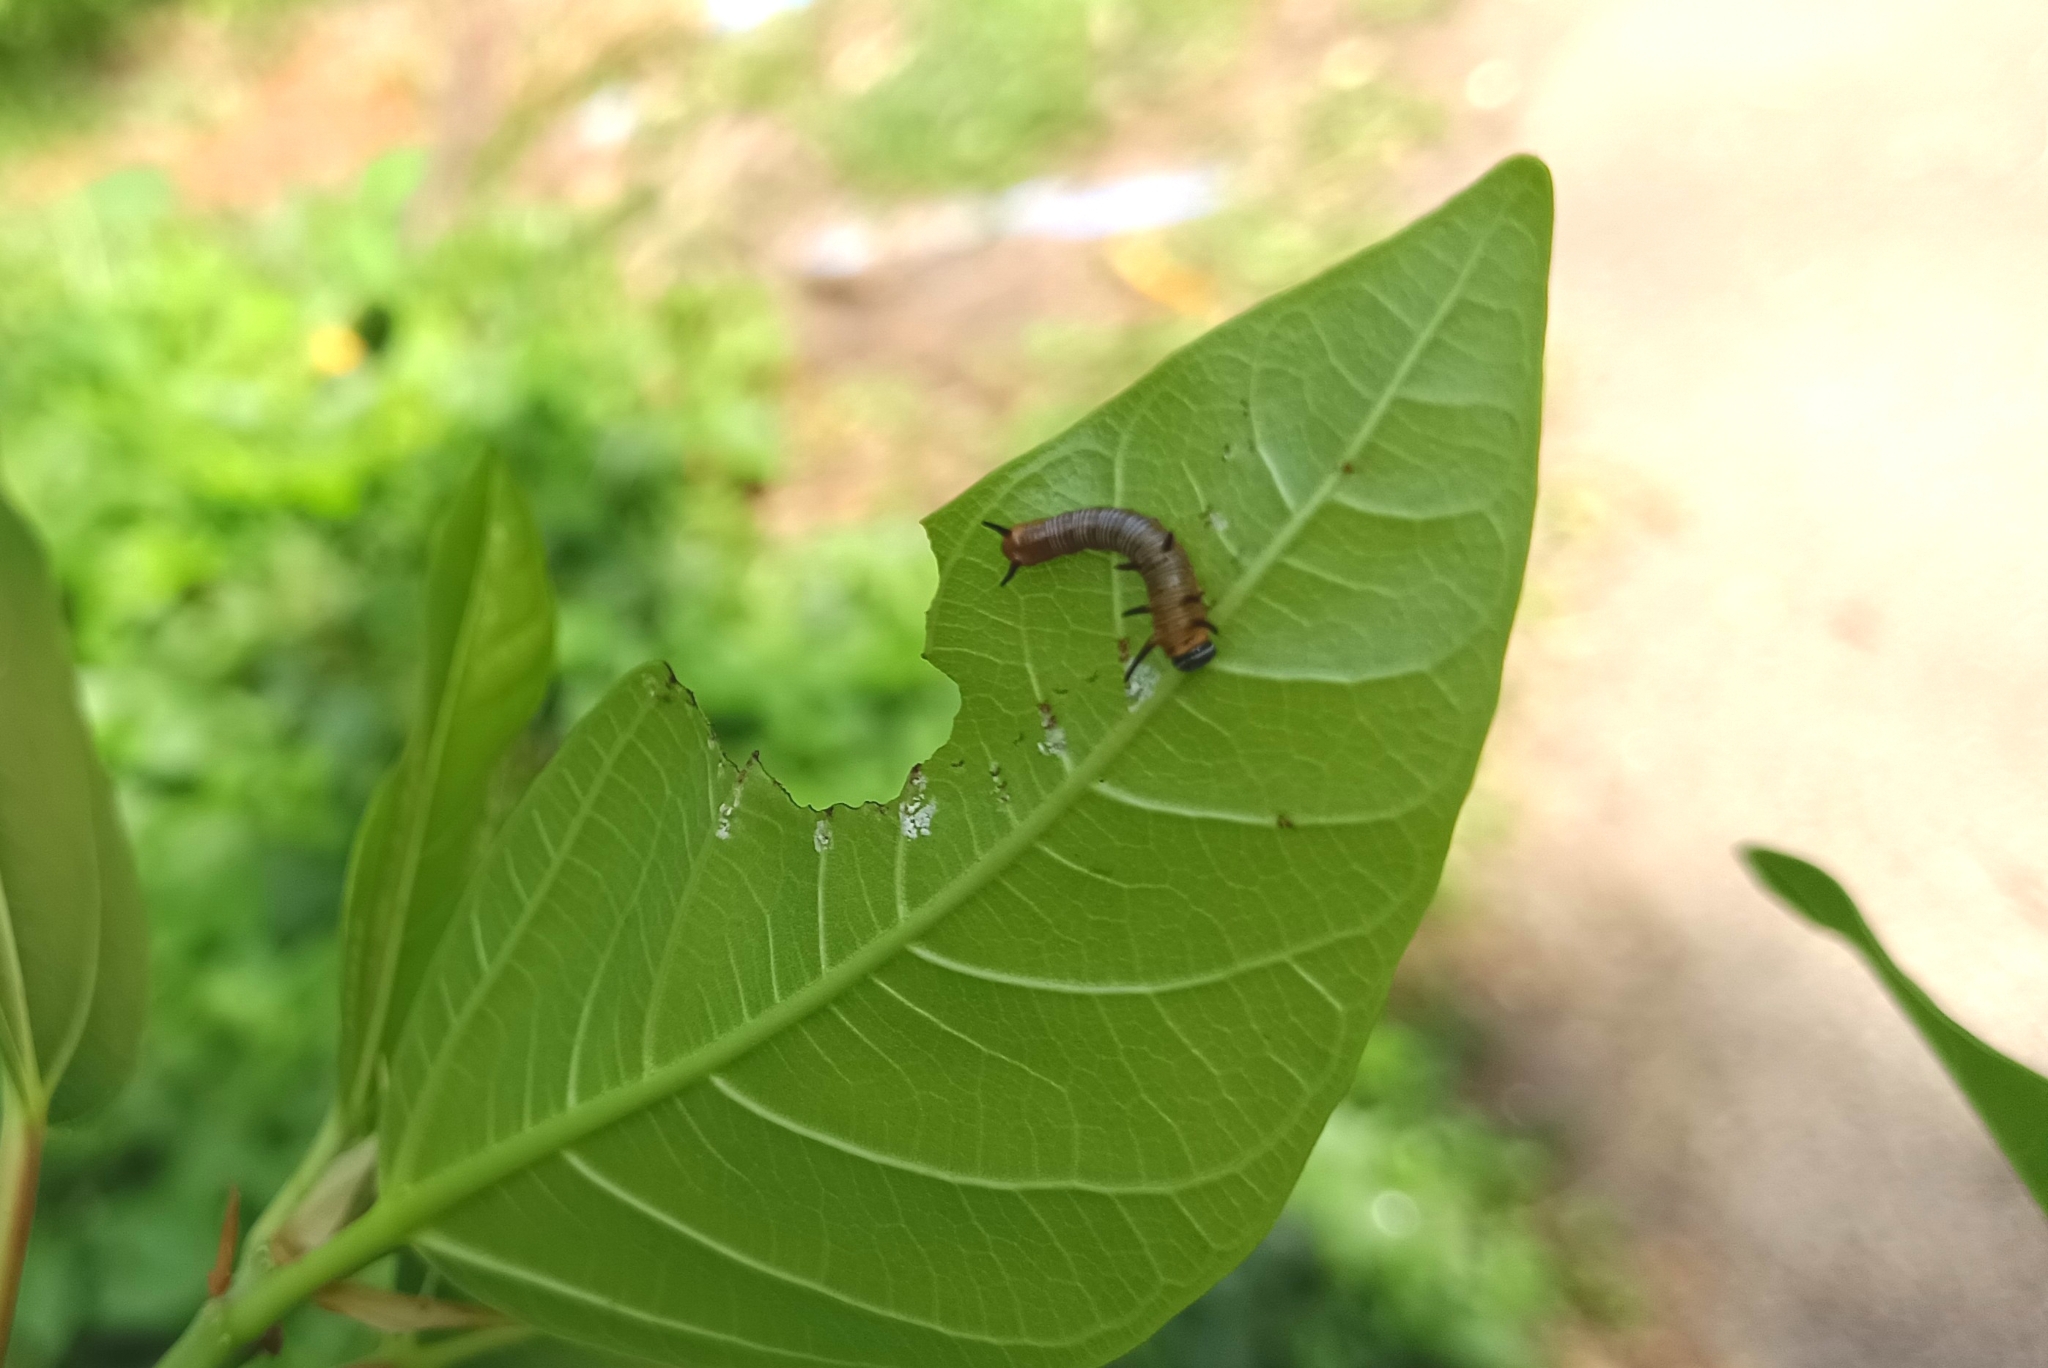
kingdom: Animalia
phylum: Arthropoda
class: Insecta
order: Lepidoptera
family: Nymphalidae
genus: Euploea
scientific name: Euploea core
